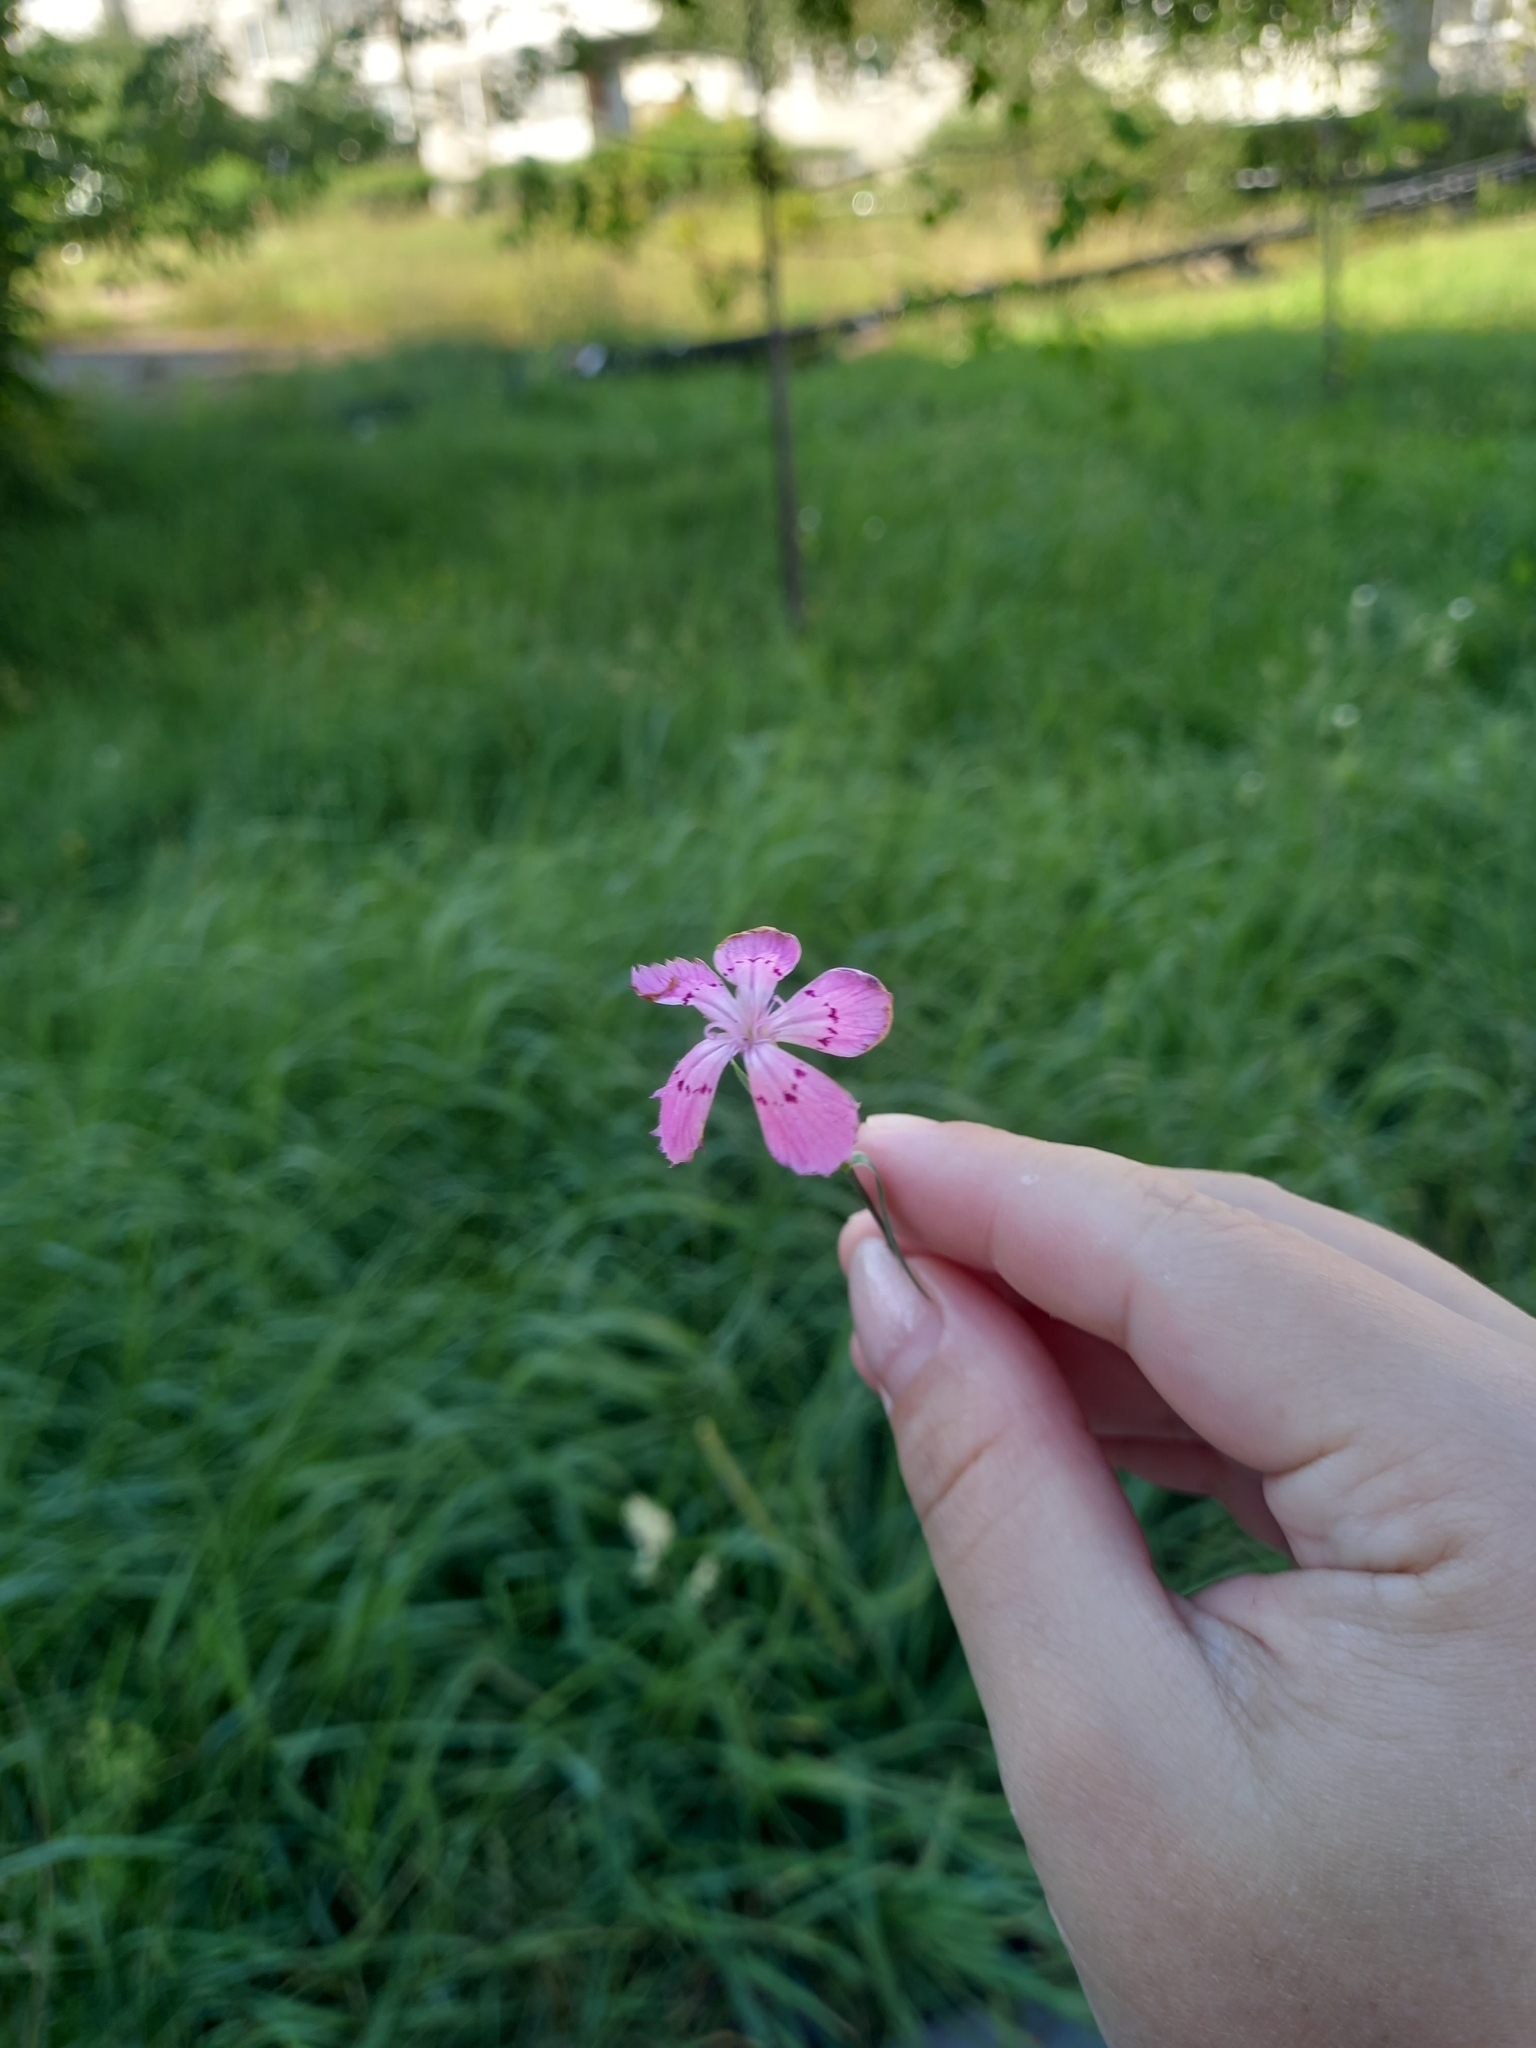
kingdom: Plantae
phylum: Tracheophyta
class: Magnoliopsida
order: Caryophyllales
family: Caryophyllaceae
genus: Dianthus
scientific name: Dianthus chinensis
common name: Rainbow pink
